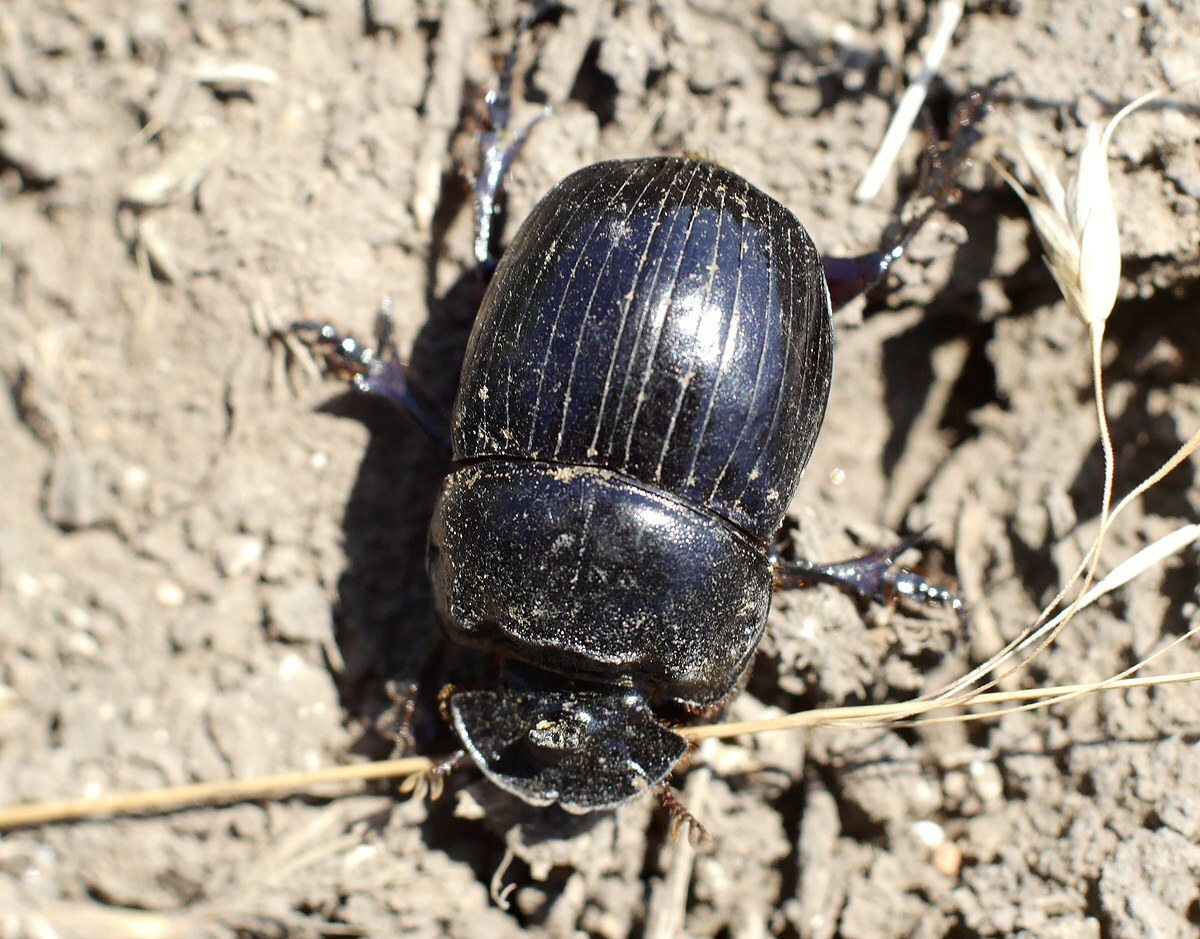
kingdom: Animalia
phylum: Arthropoda
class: Insecta
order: Coleoptera
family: Scarabaeidae
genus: Copris
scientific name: Copris lunaris
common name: Horned dung beetle
